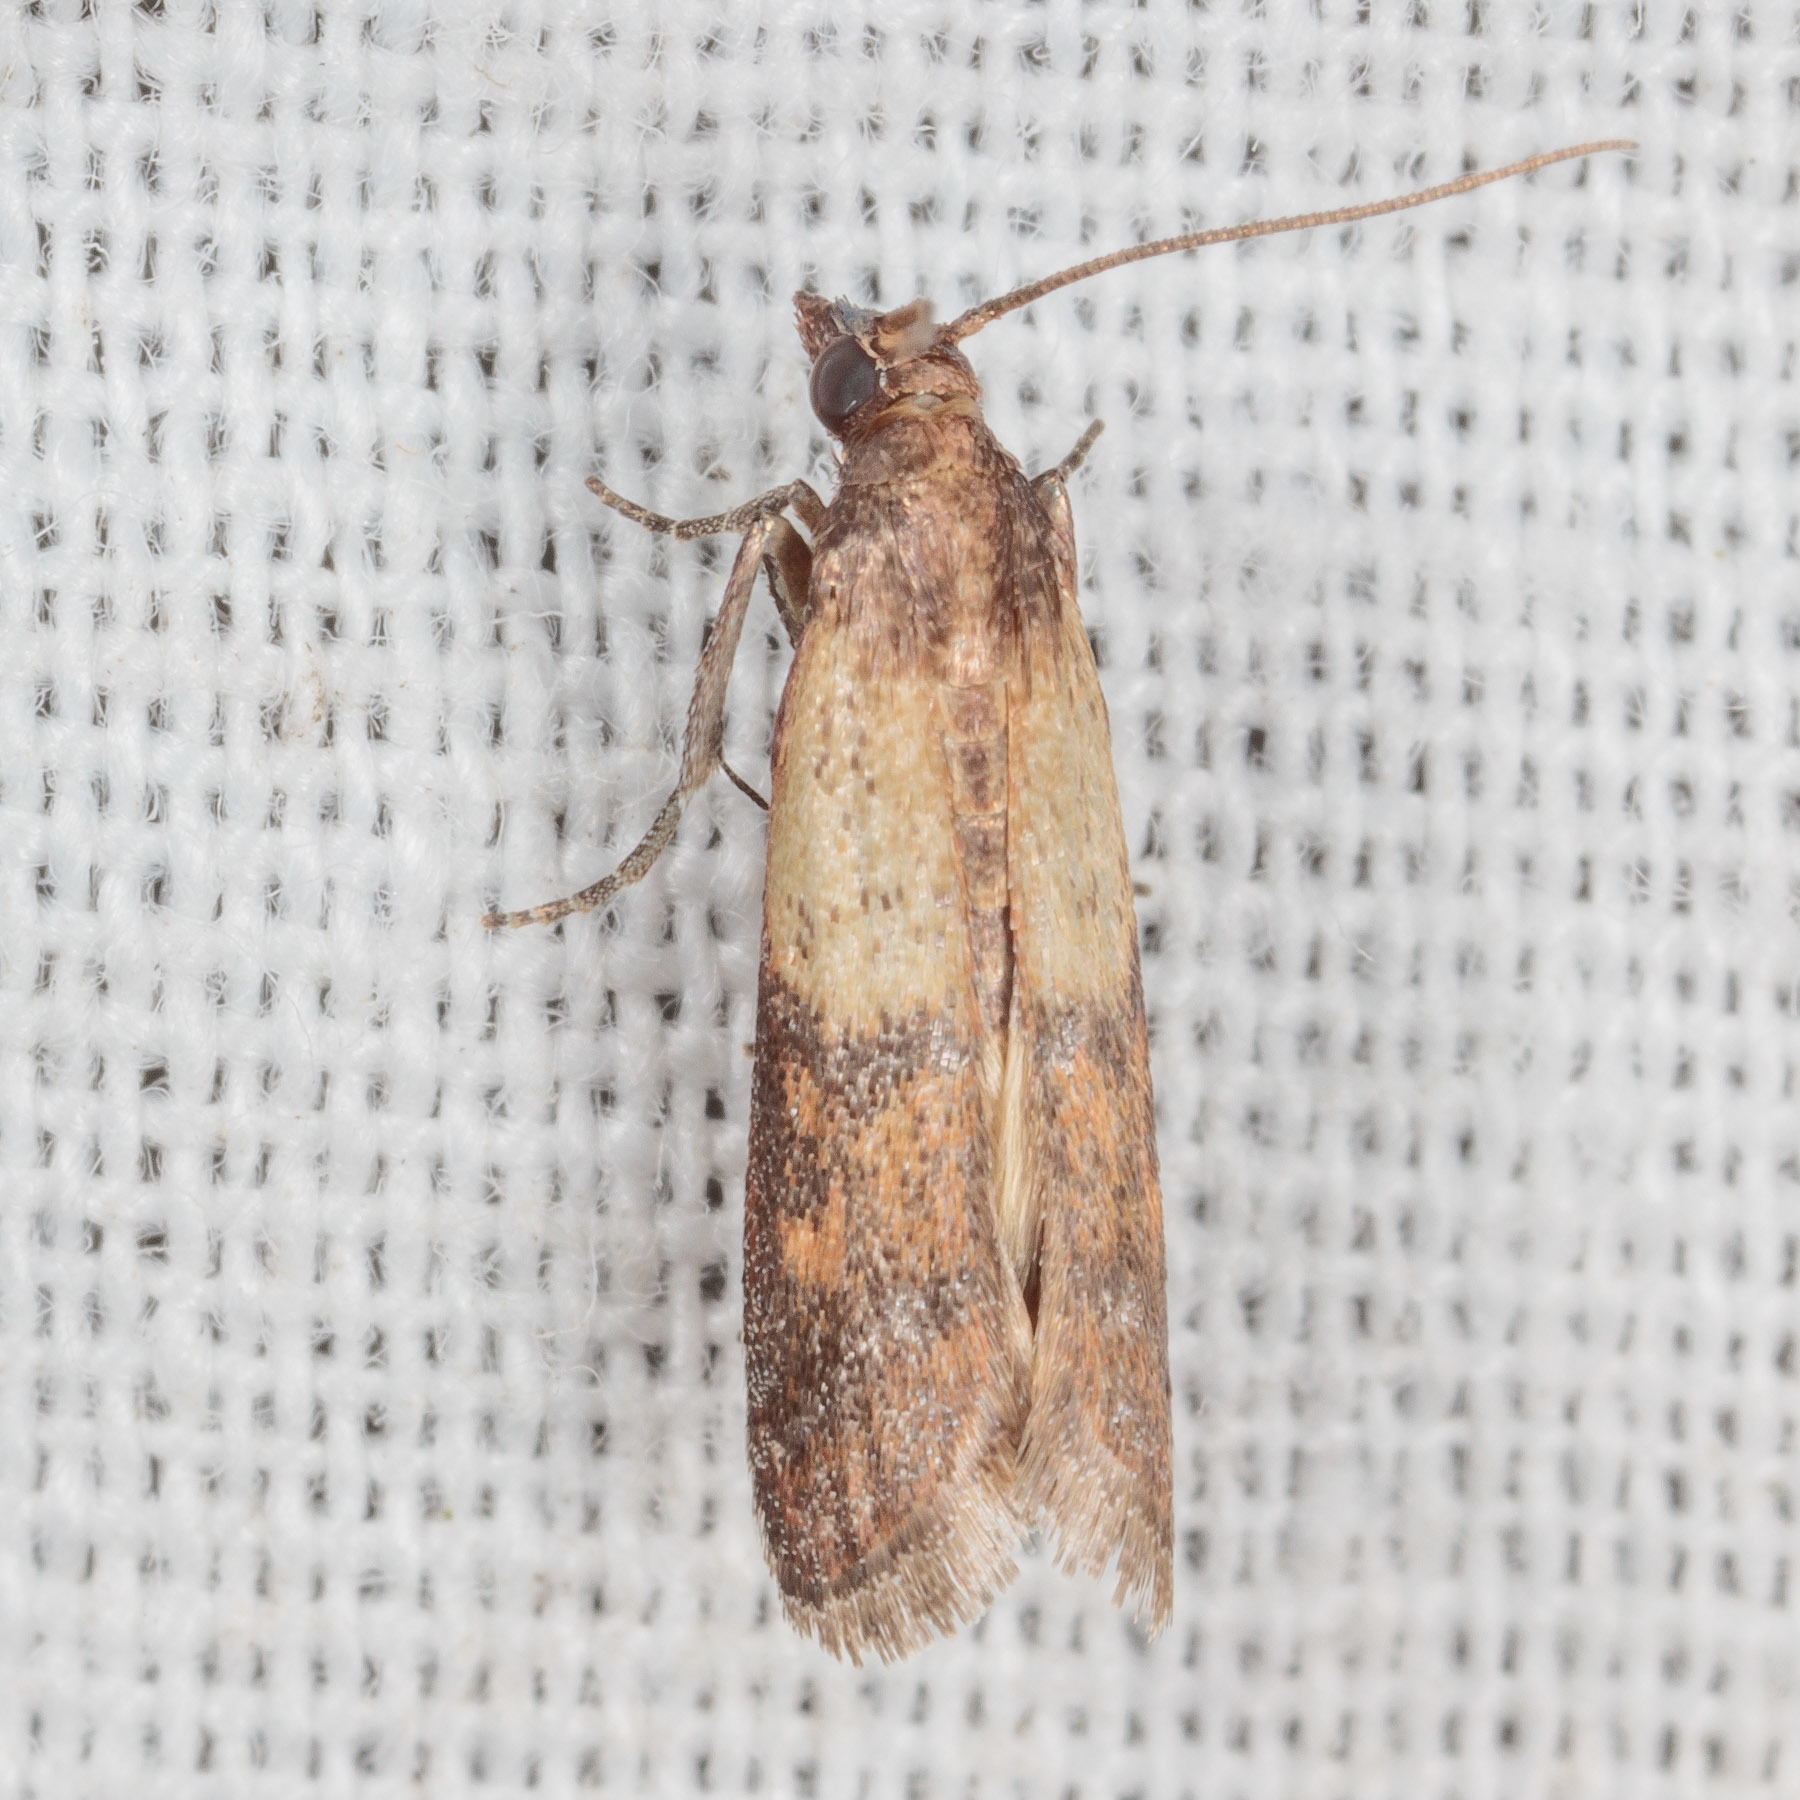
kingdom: Animalia
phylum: Arthropoda
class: Insecta
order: Lepidoptera
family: Pyralidae
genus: Plodia
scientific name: Plodia interpunctella
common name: Indian meal moth
